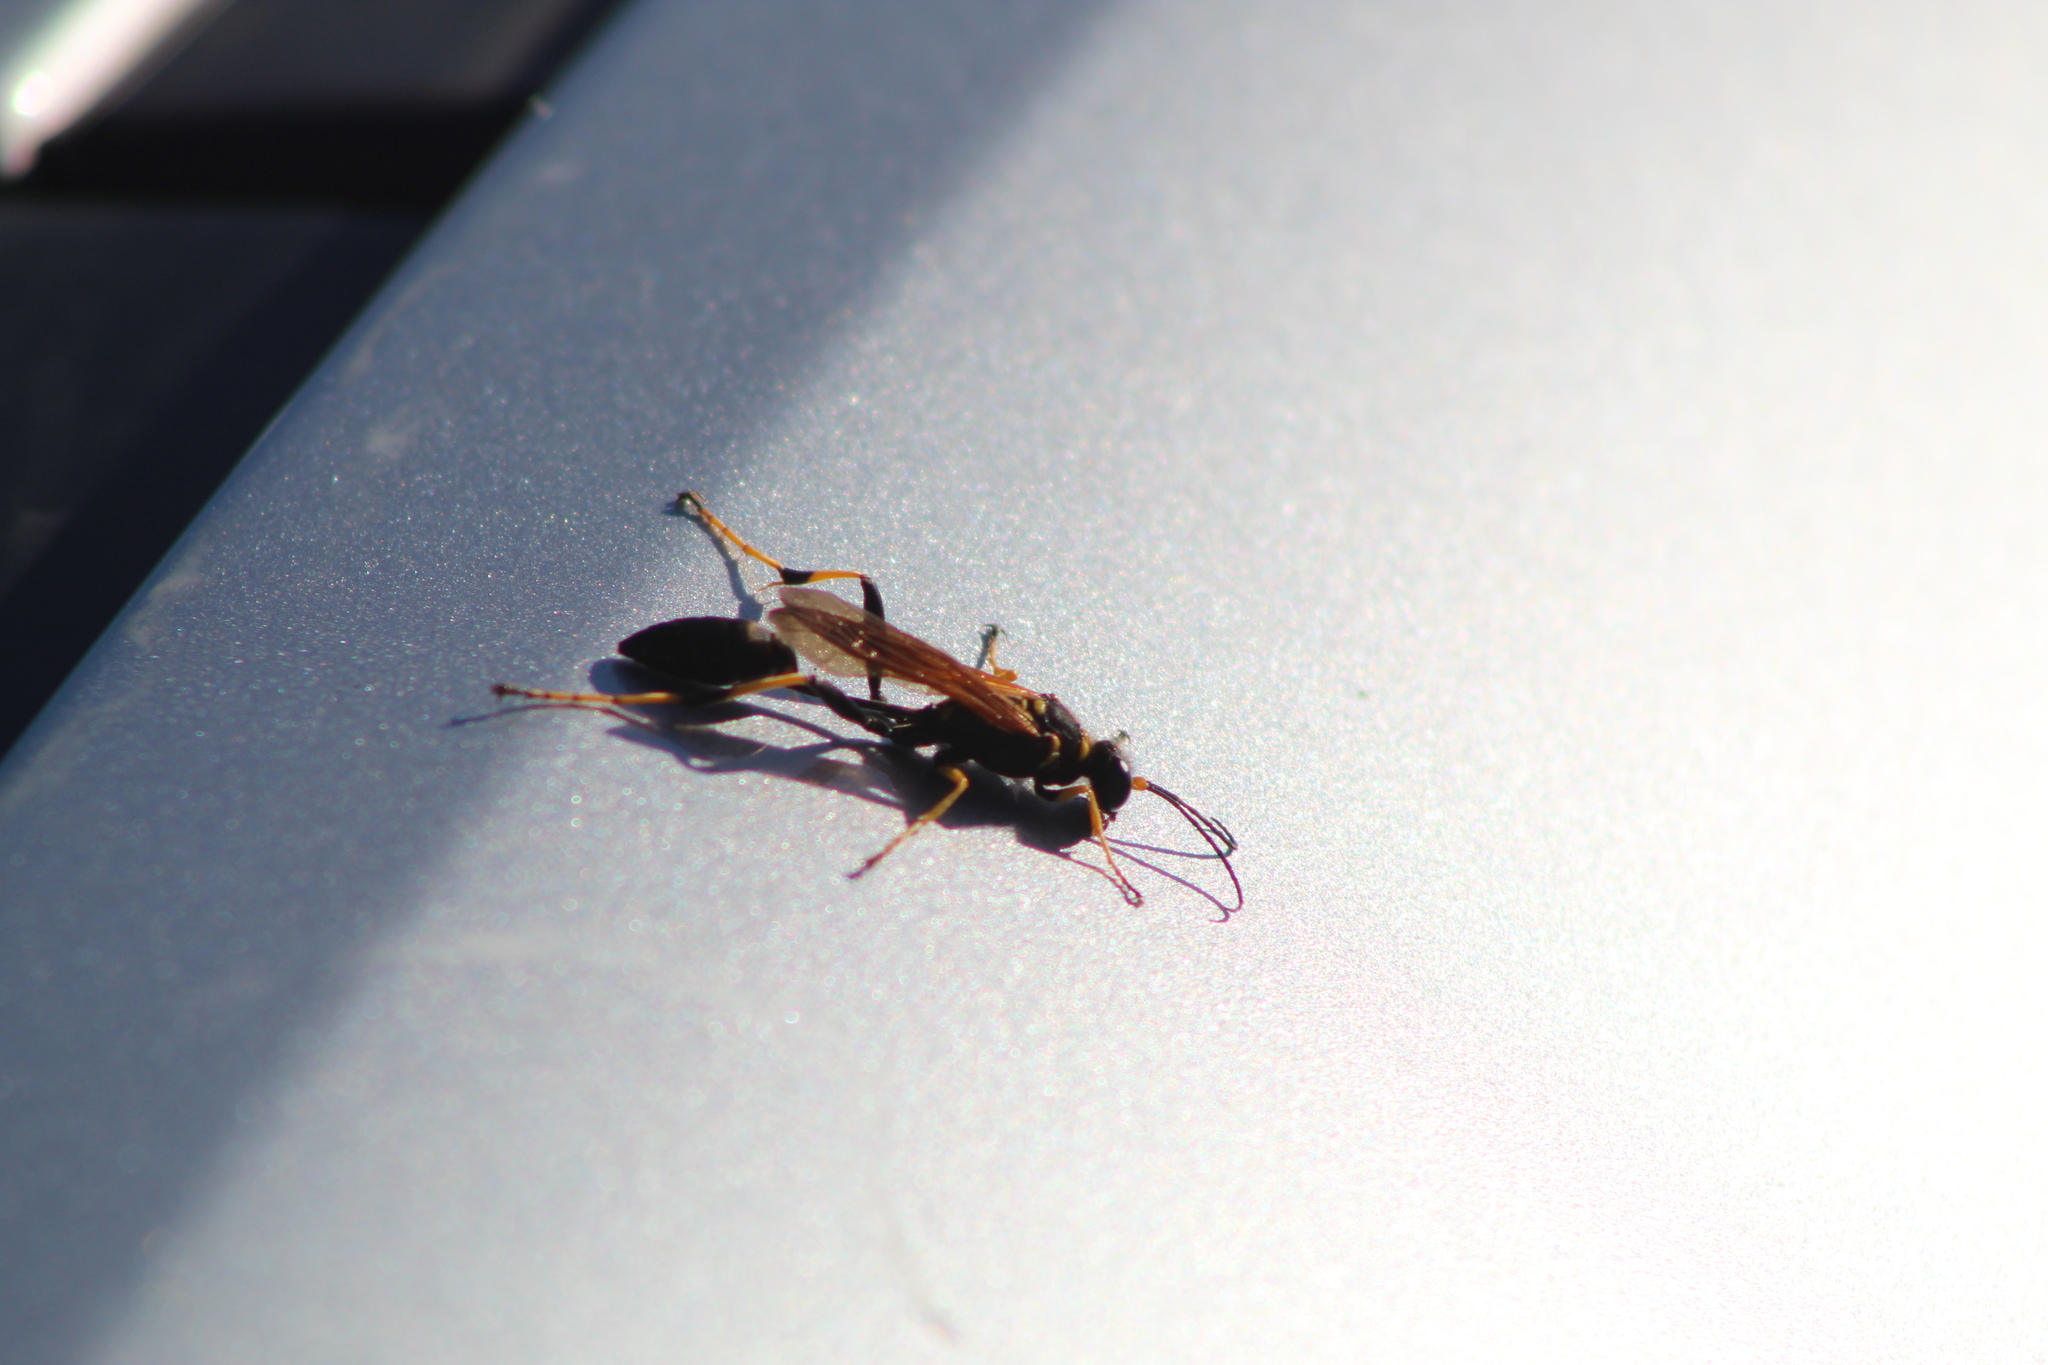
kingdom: Animalia
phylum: Arthropoda
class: Insecta
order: Hymenoptera
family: Sphecidae
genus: Sceliphron
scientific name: Sceliphron caementarium
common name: Mud dauber
